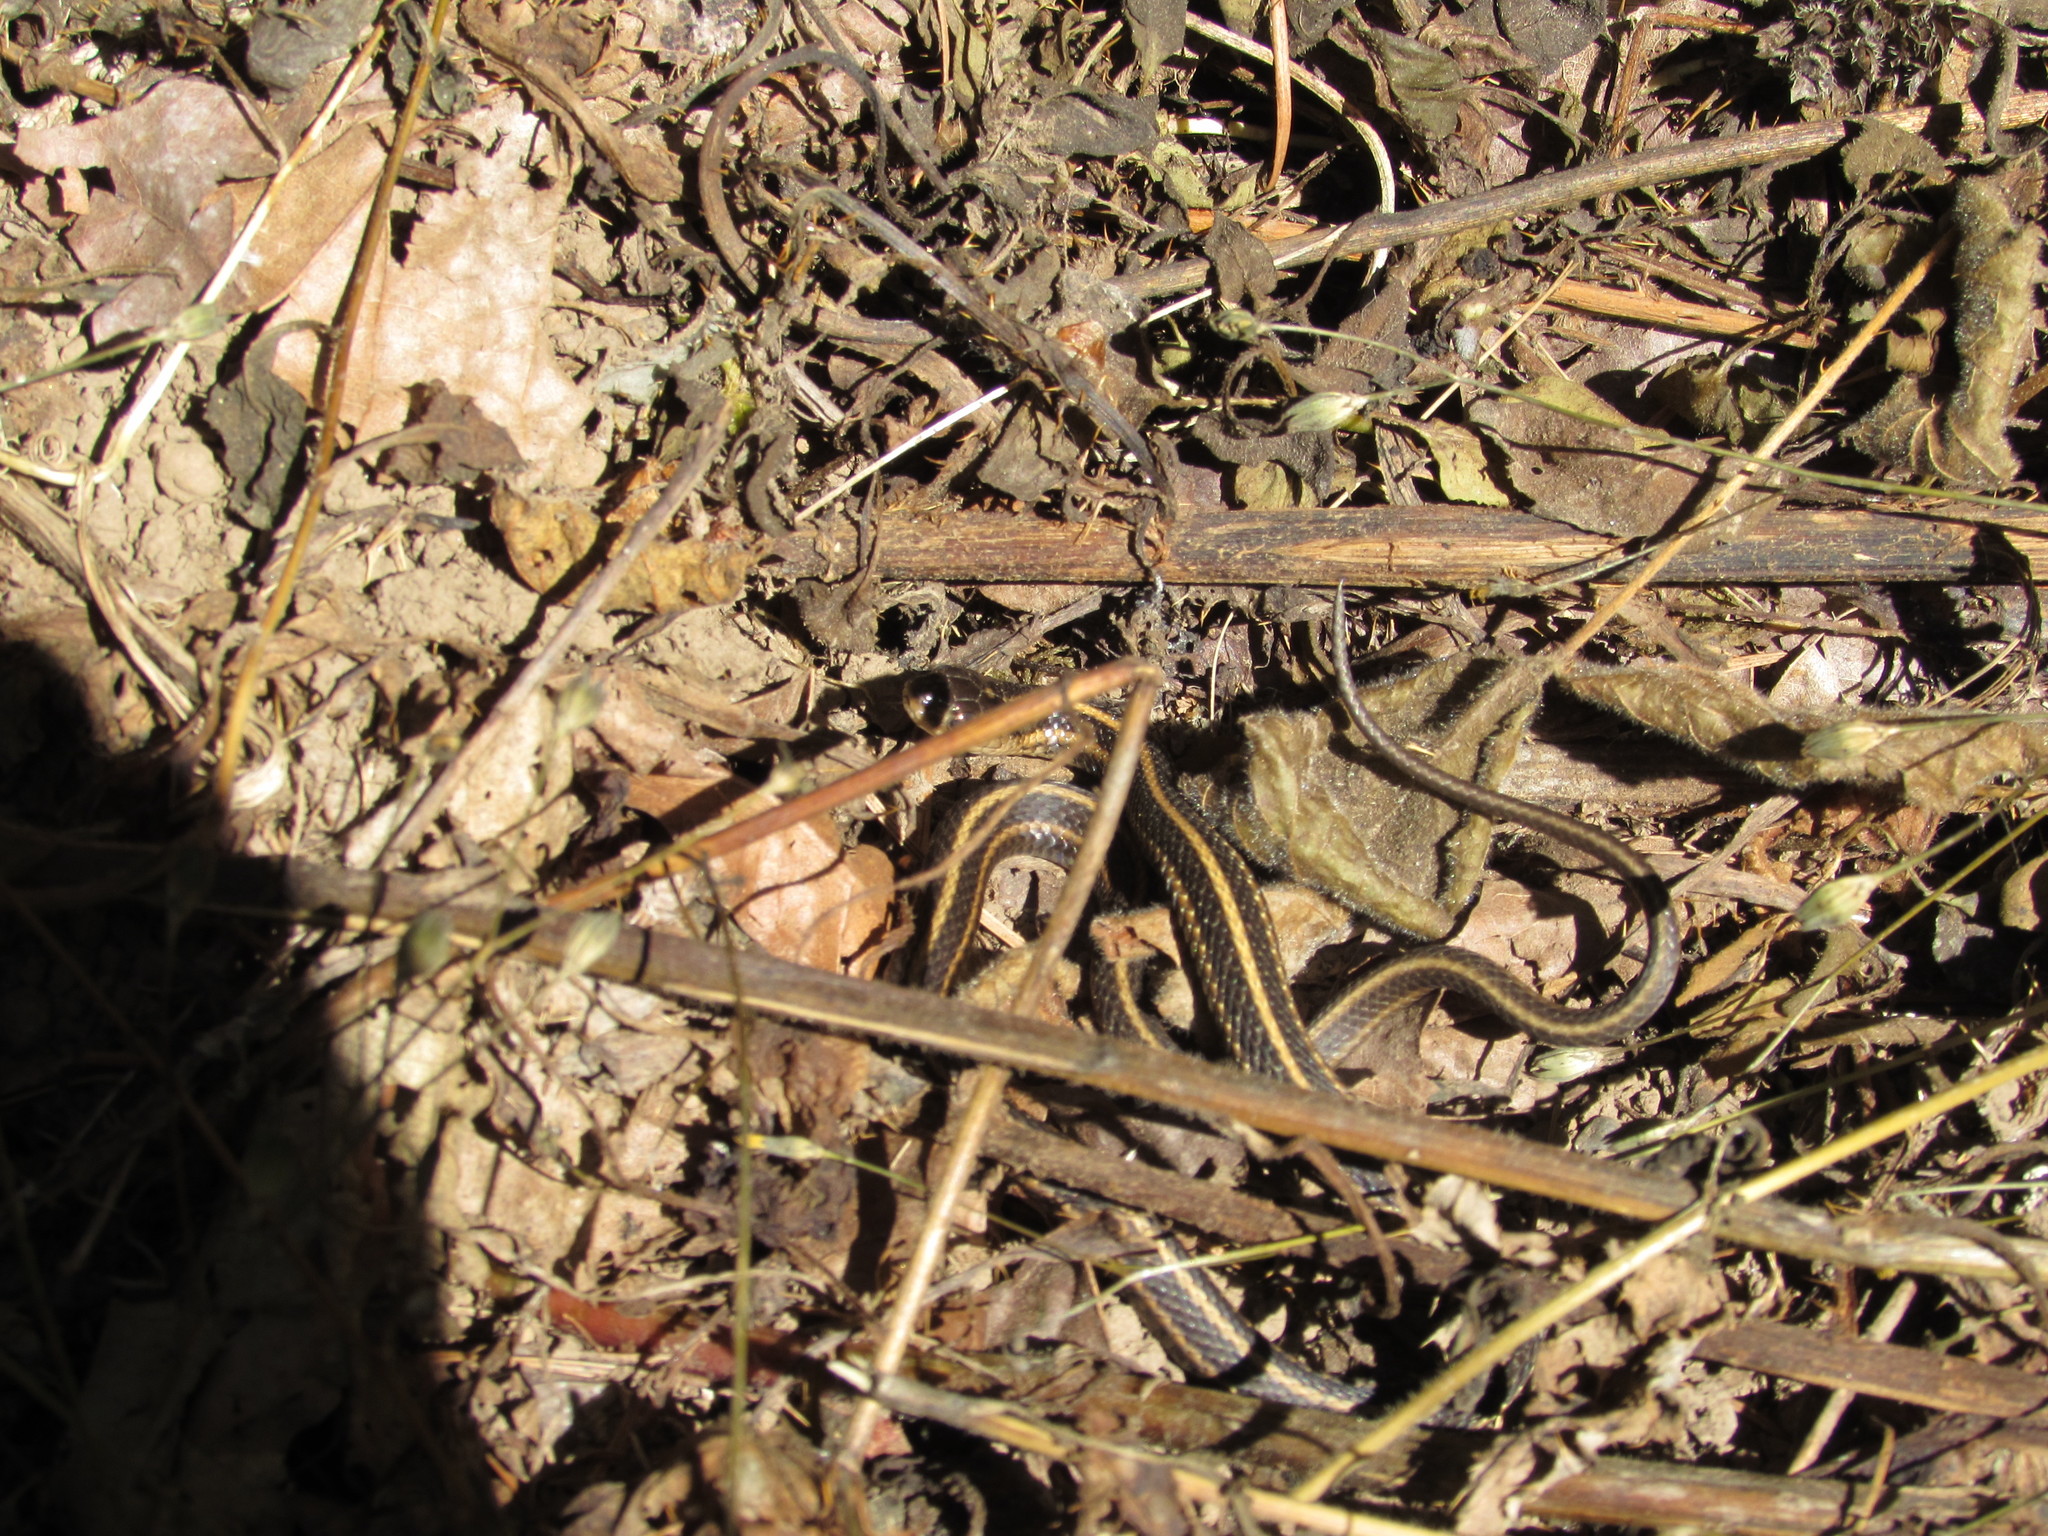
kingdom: Animalia
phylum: Chordata
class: Squamata
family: Colubridae
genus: Thamnophis
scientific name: Thamnophis ordinoides
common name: Northwestern garter snake
